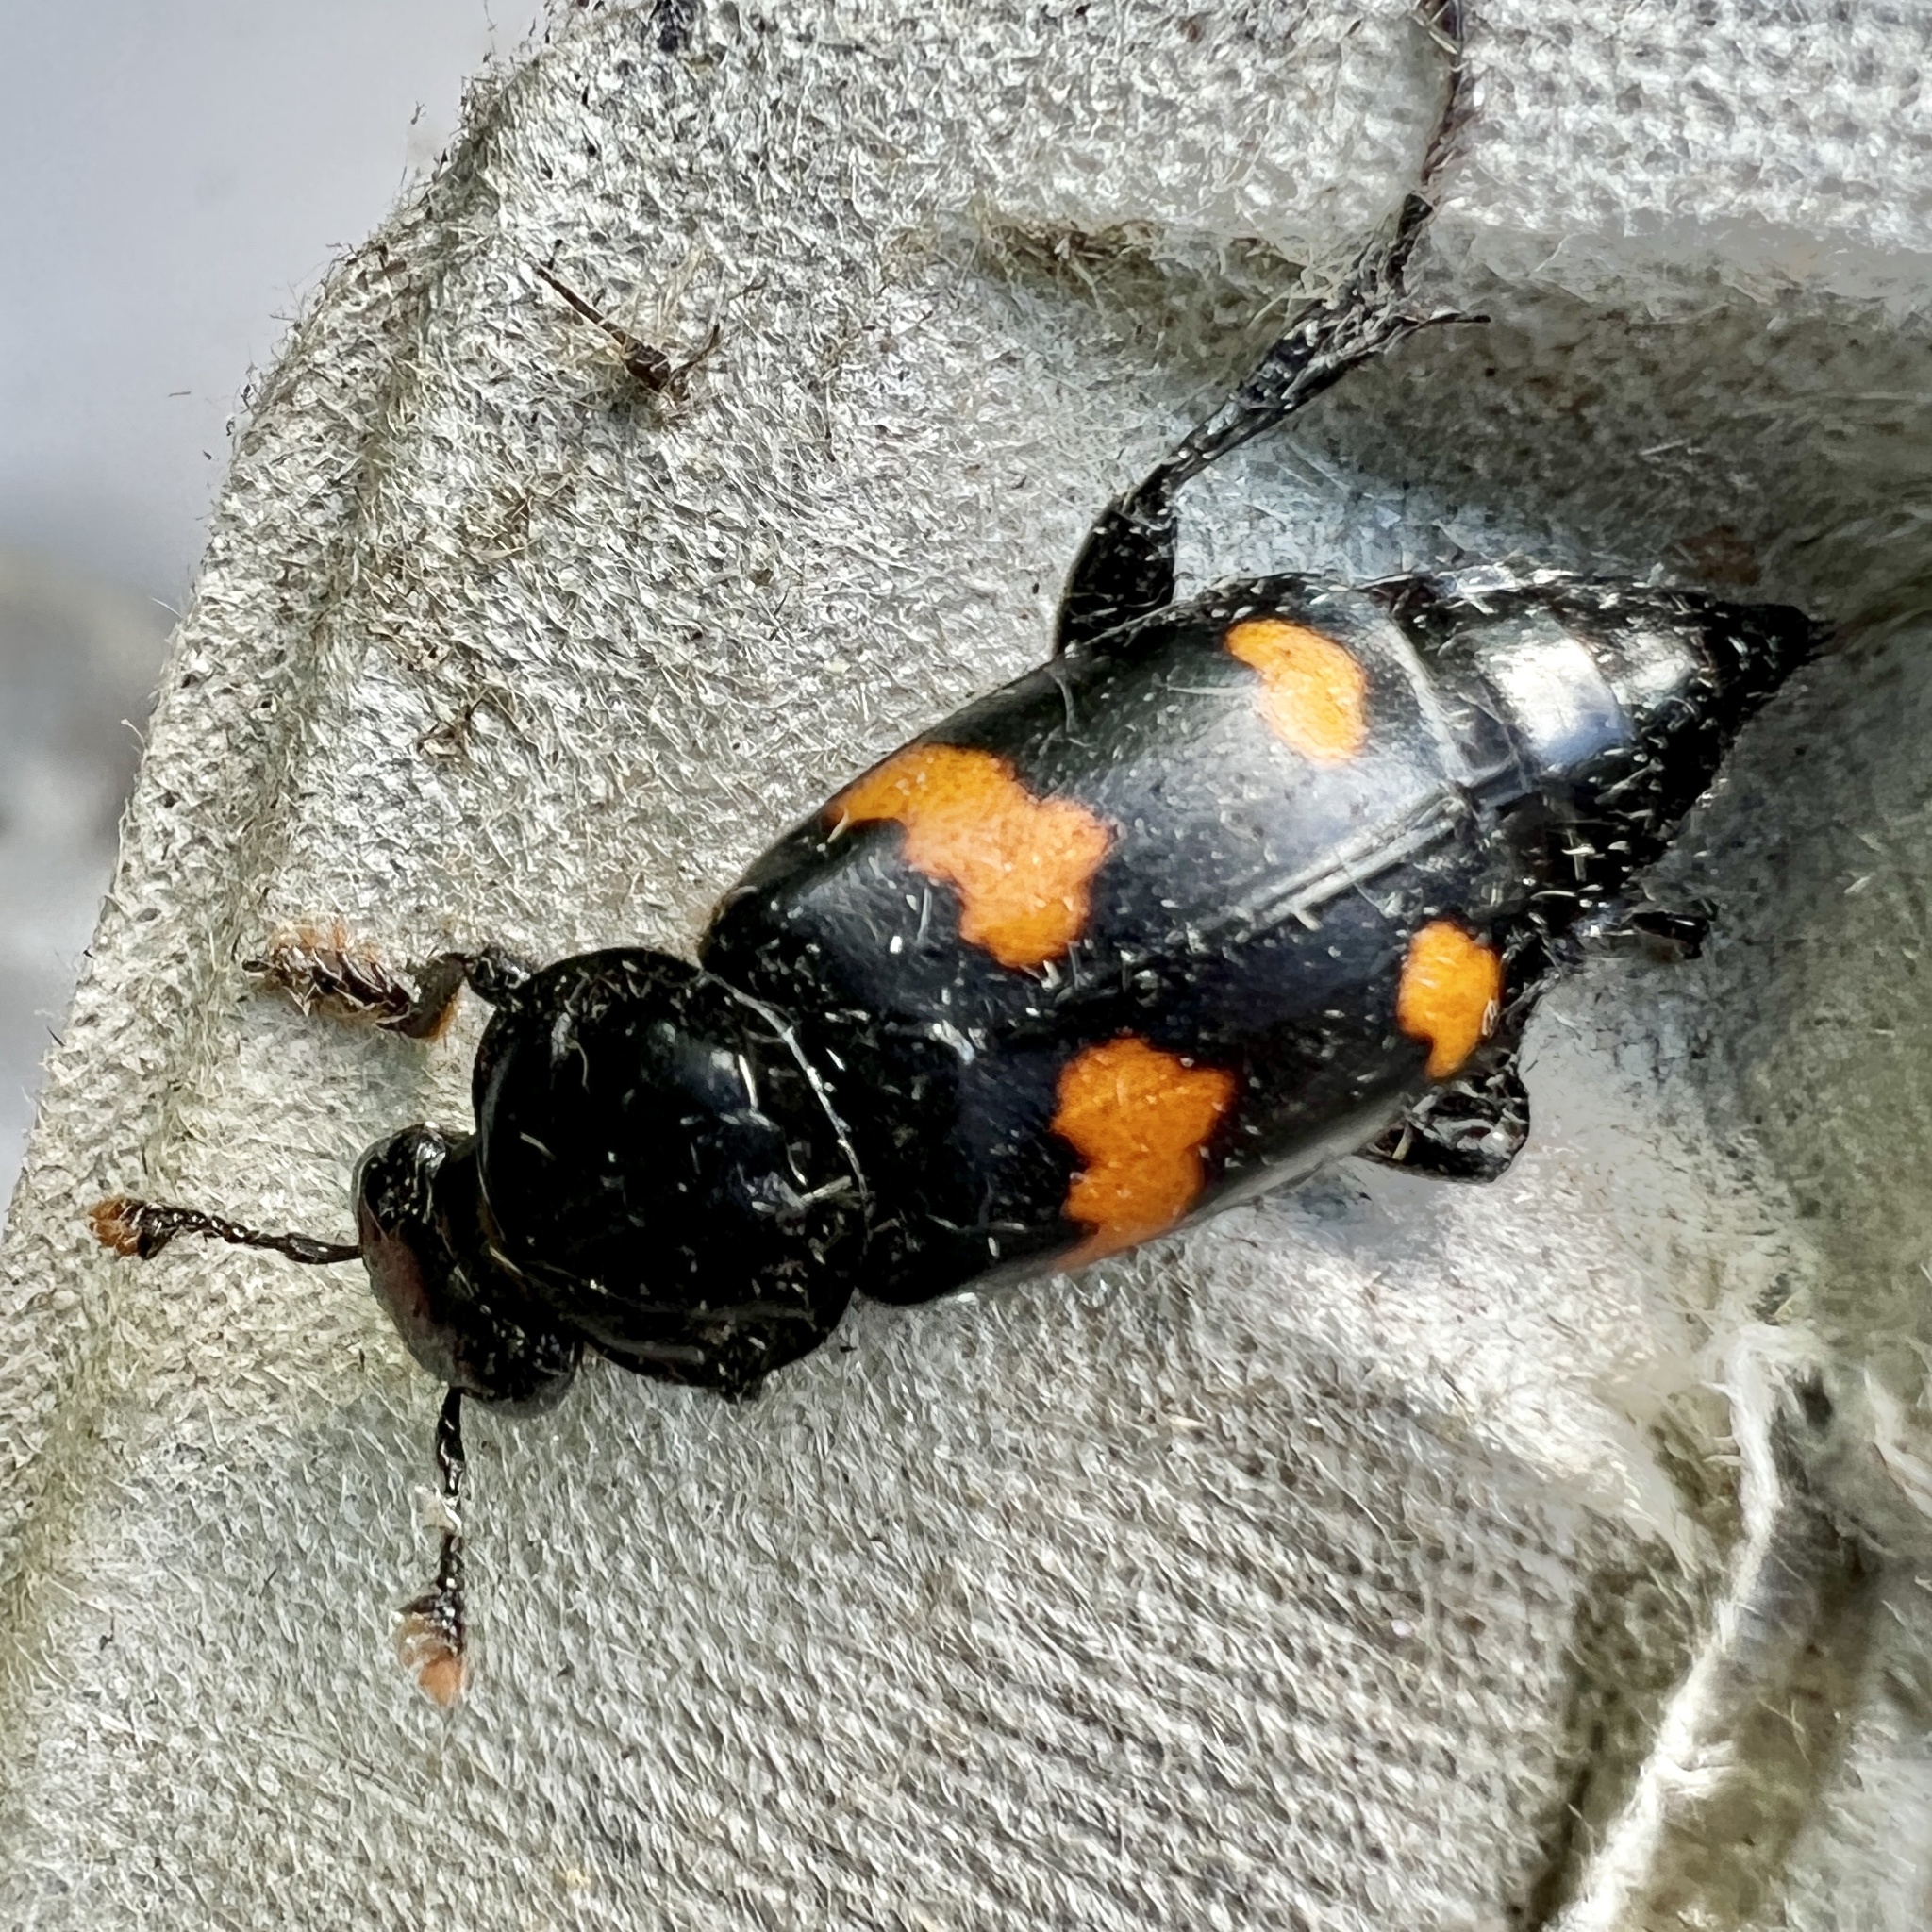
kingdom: Animalia
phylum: Arthropoda
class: Insecta
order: Coleoptera
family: Staphylinidae
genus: Nicrophorus
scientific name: Nicrophorus orbicollis
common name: Roundneck sexton beetle
